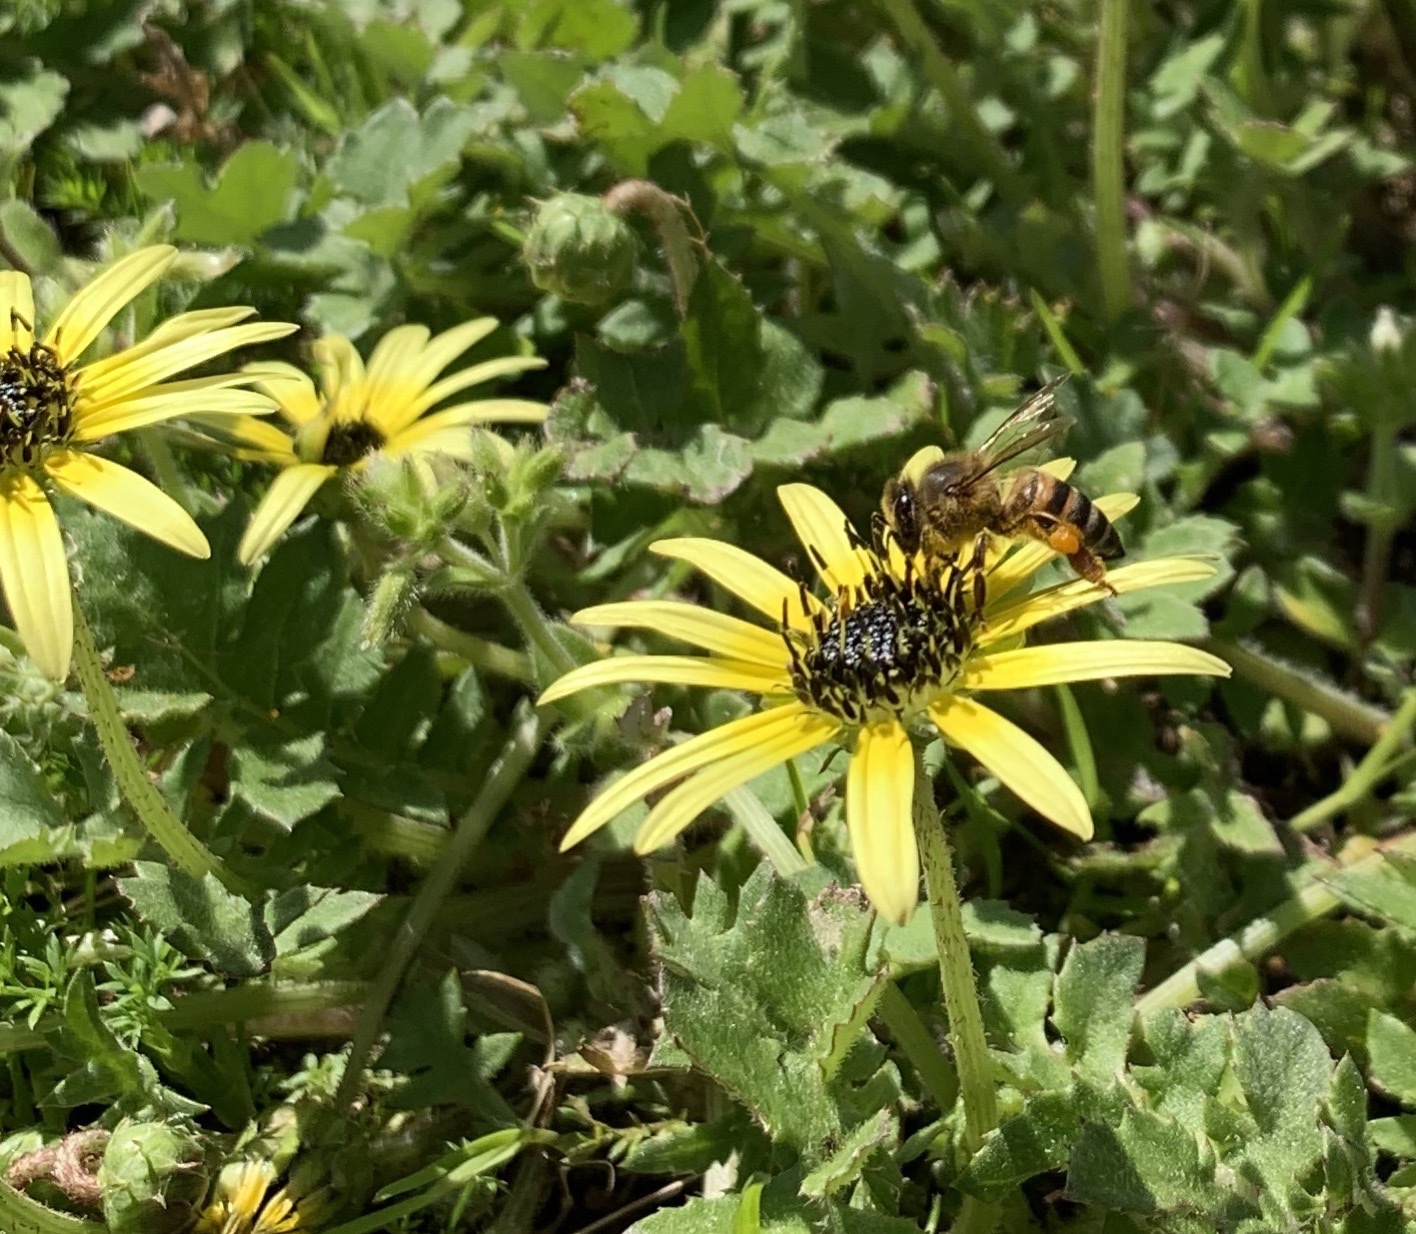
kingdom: Animalia
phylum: Arthropoda
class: Insecta
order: Hymenoptera
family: Apidae
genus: Apis
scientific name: Apis mellifera
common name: Honey bee
